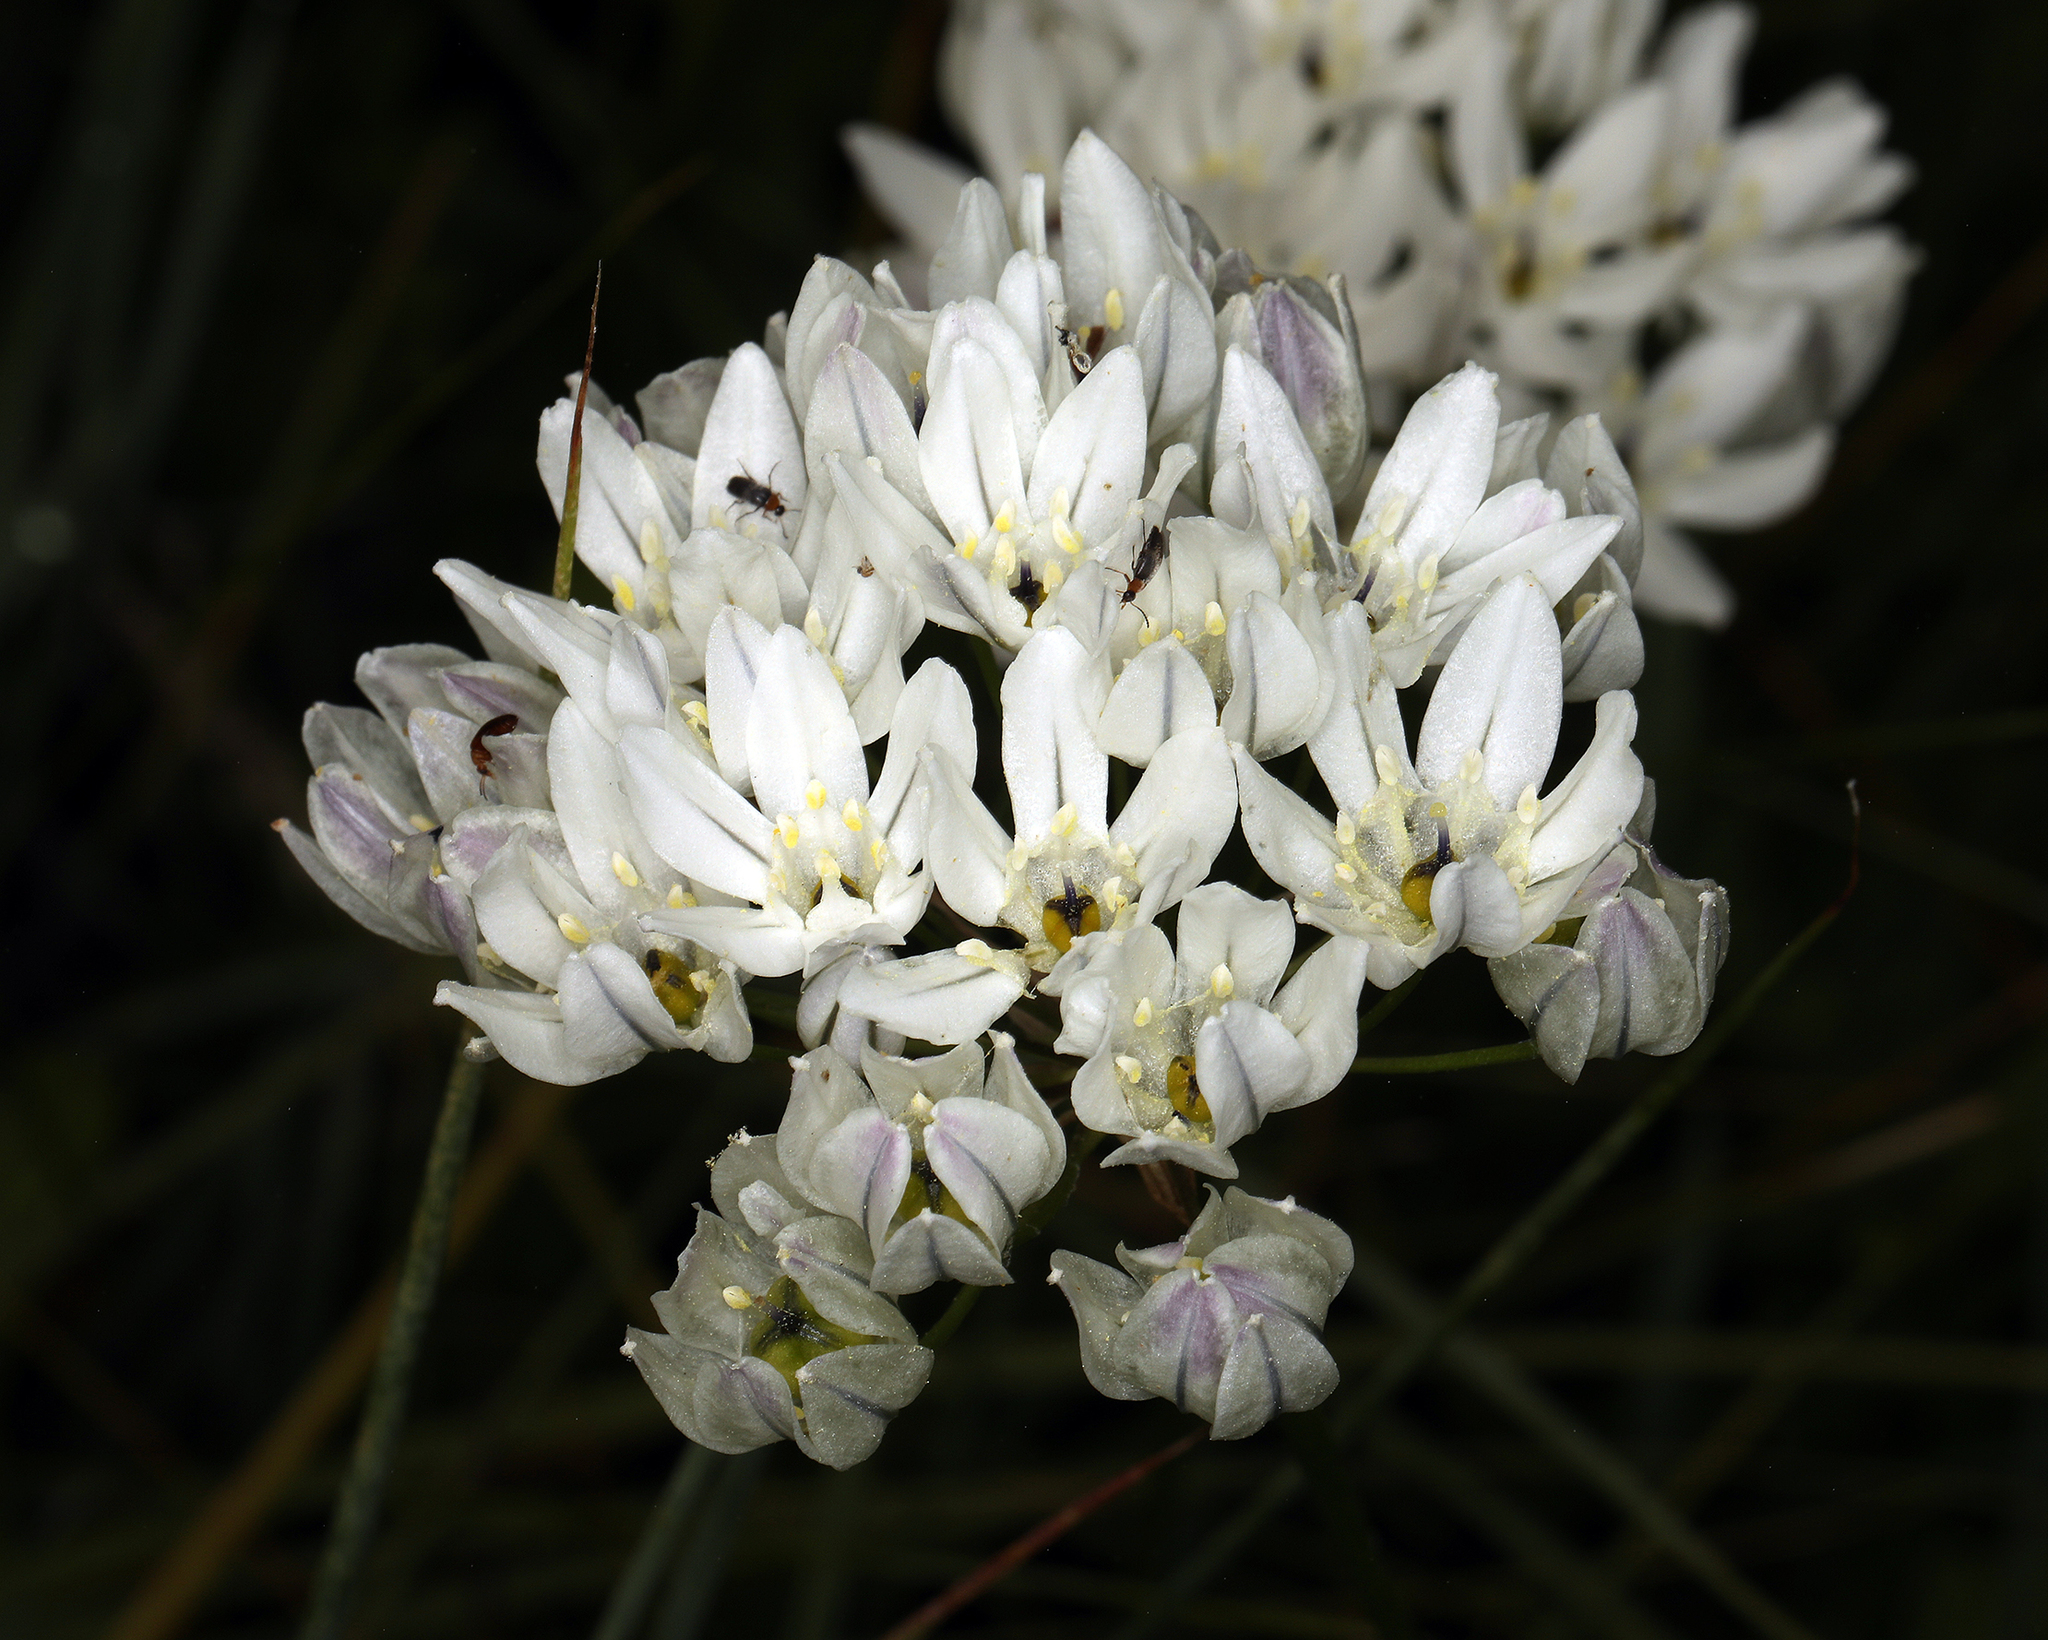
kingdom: Plantae
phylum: Tracheophyta
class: Liliopsida
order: Asparagales
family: Asparagaceae
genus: Triteleia
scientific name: Triteleia hyacinthina
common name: White brodiaea
